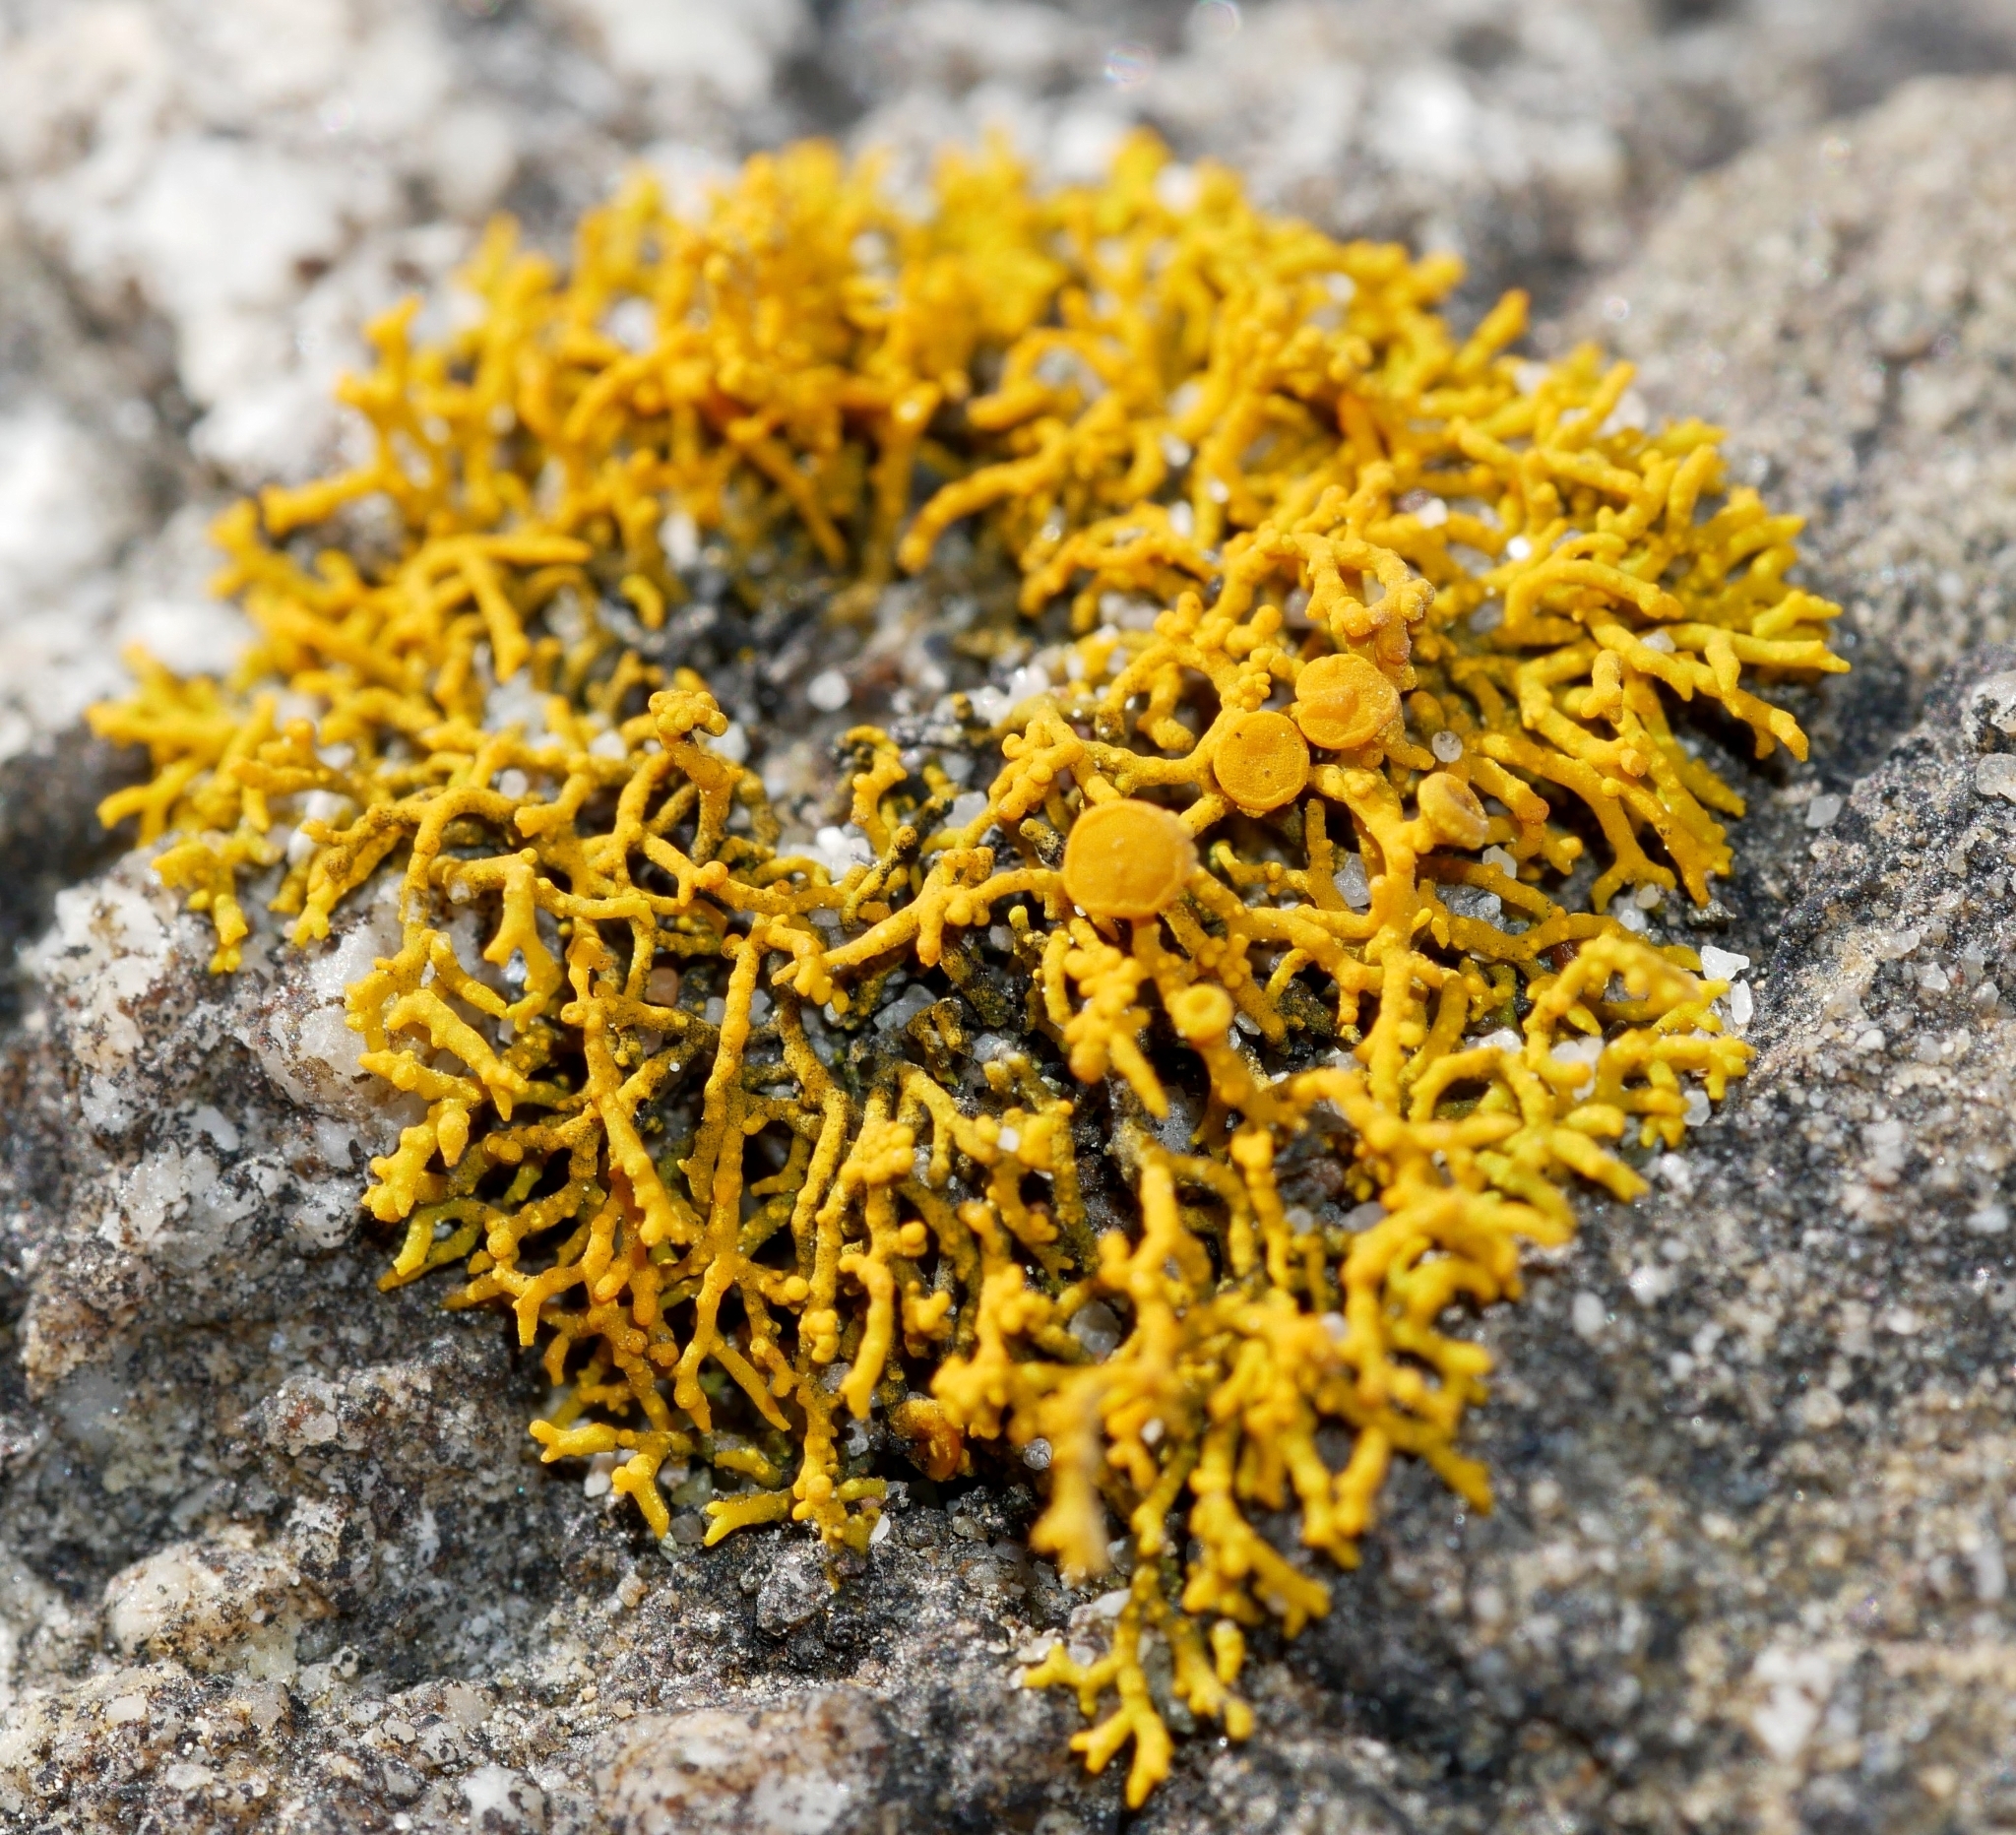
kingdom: Fungi
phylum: Ascomycota
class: Lecanoromycetes
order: Teloschistales
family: Teloschistaceae
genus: Polycauliona
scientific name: Polycauliona coralloides
